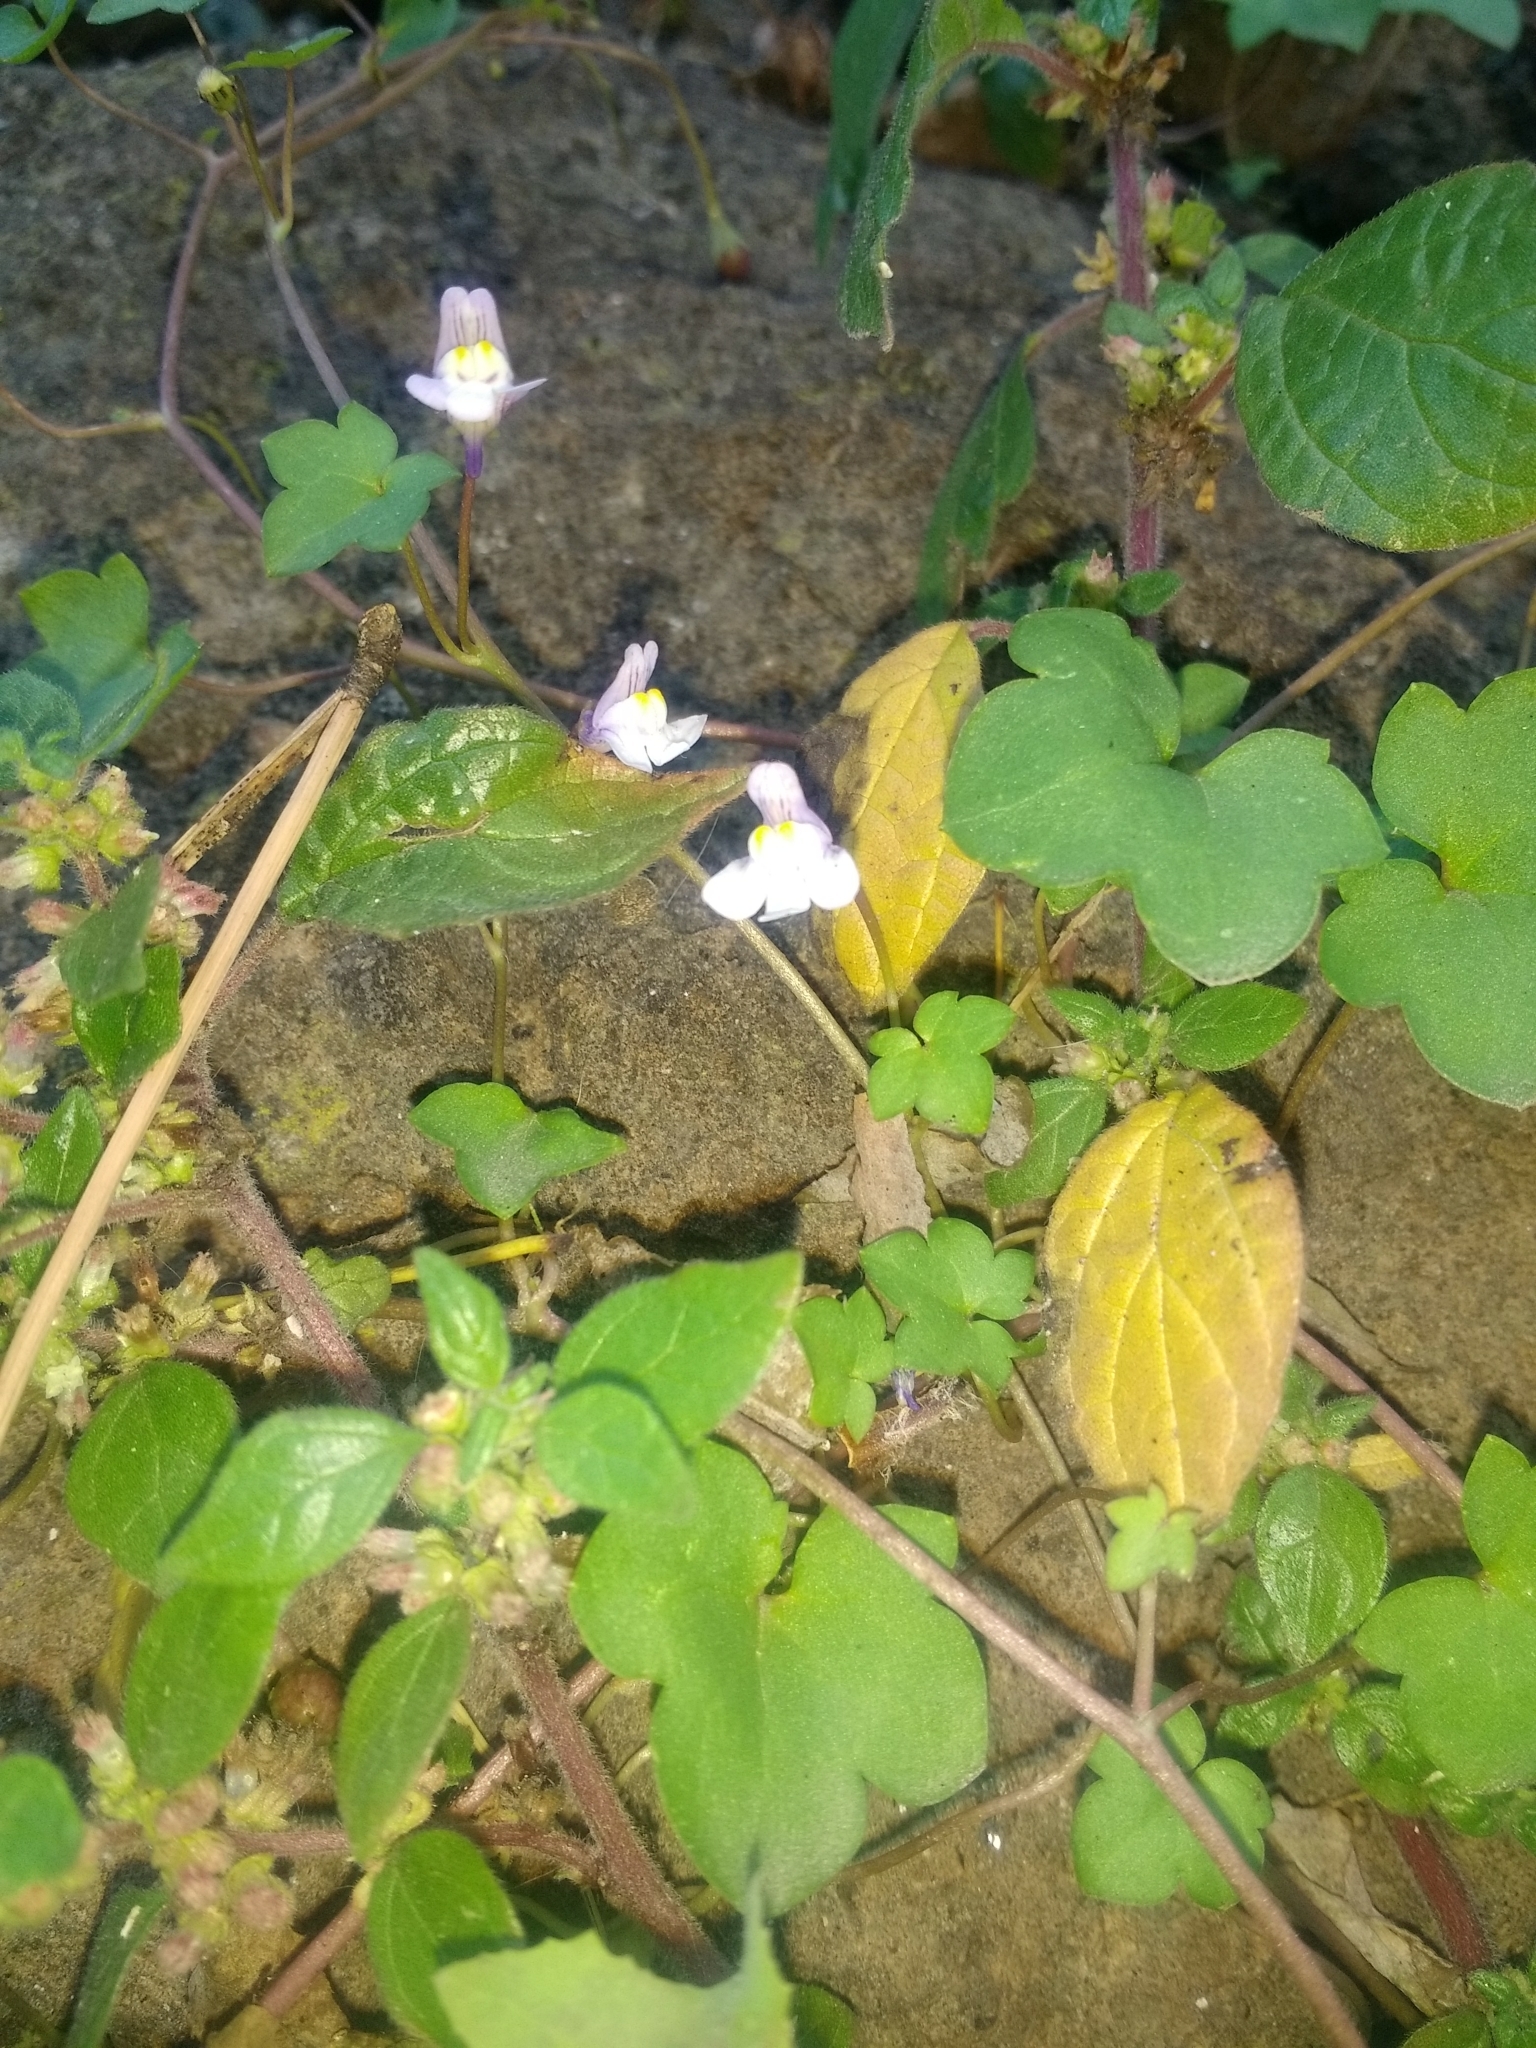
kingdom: Plantae
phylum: Tracheophyta
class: Magnoliopsida
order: Lamiales
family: Plantaginaceae
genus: Cymbalaria
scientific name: Cymbalaria muralis
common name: Ivy-leaved toadflax
